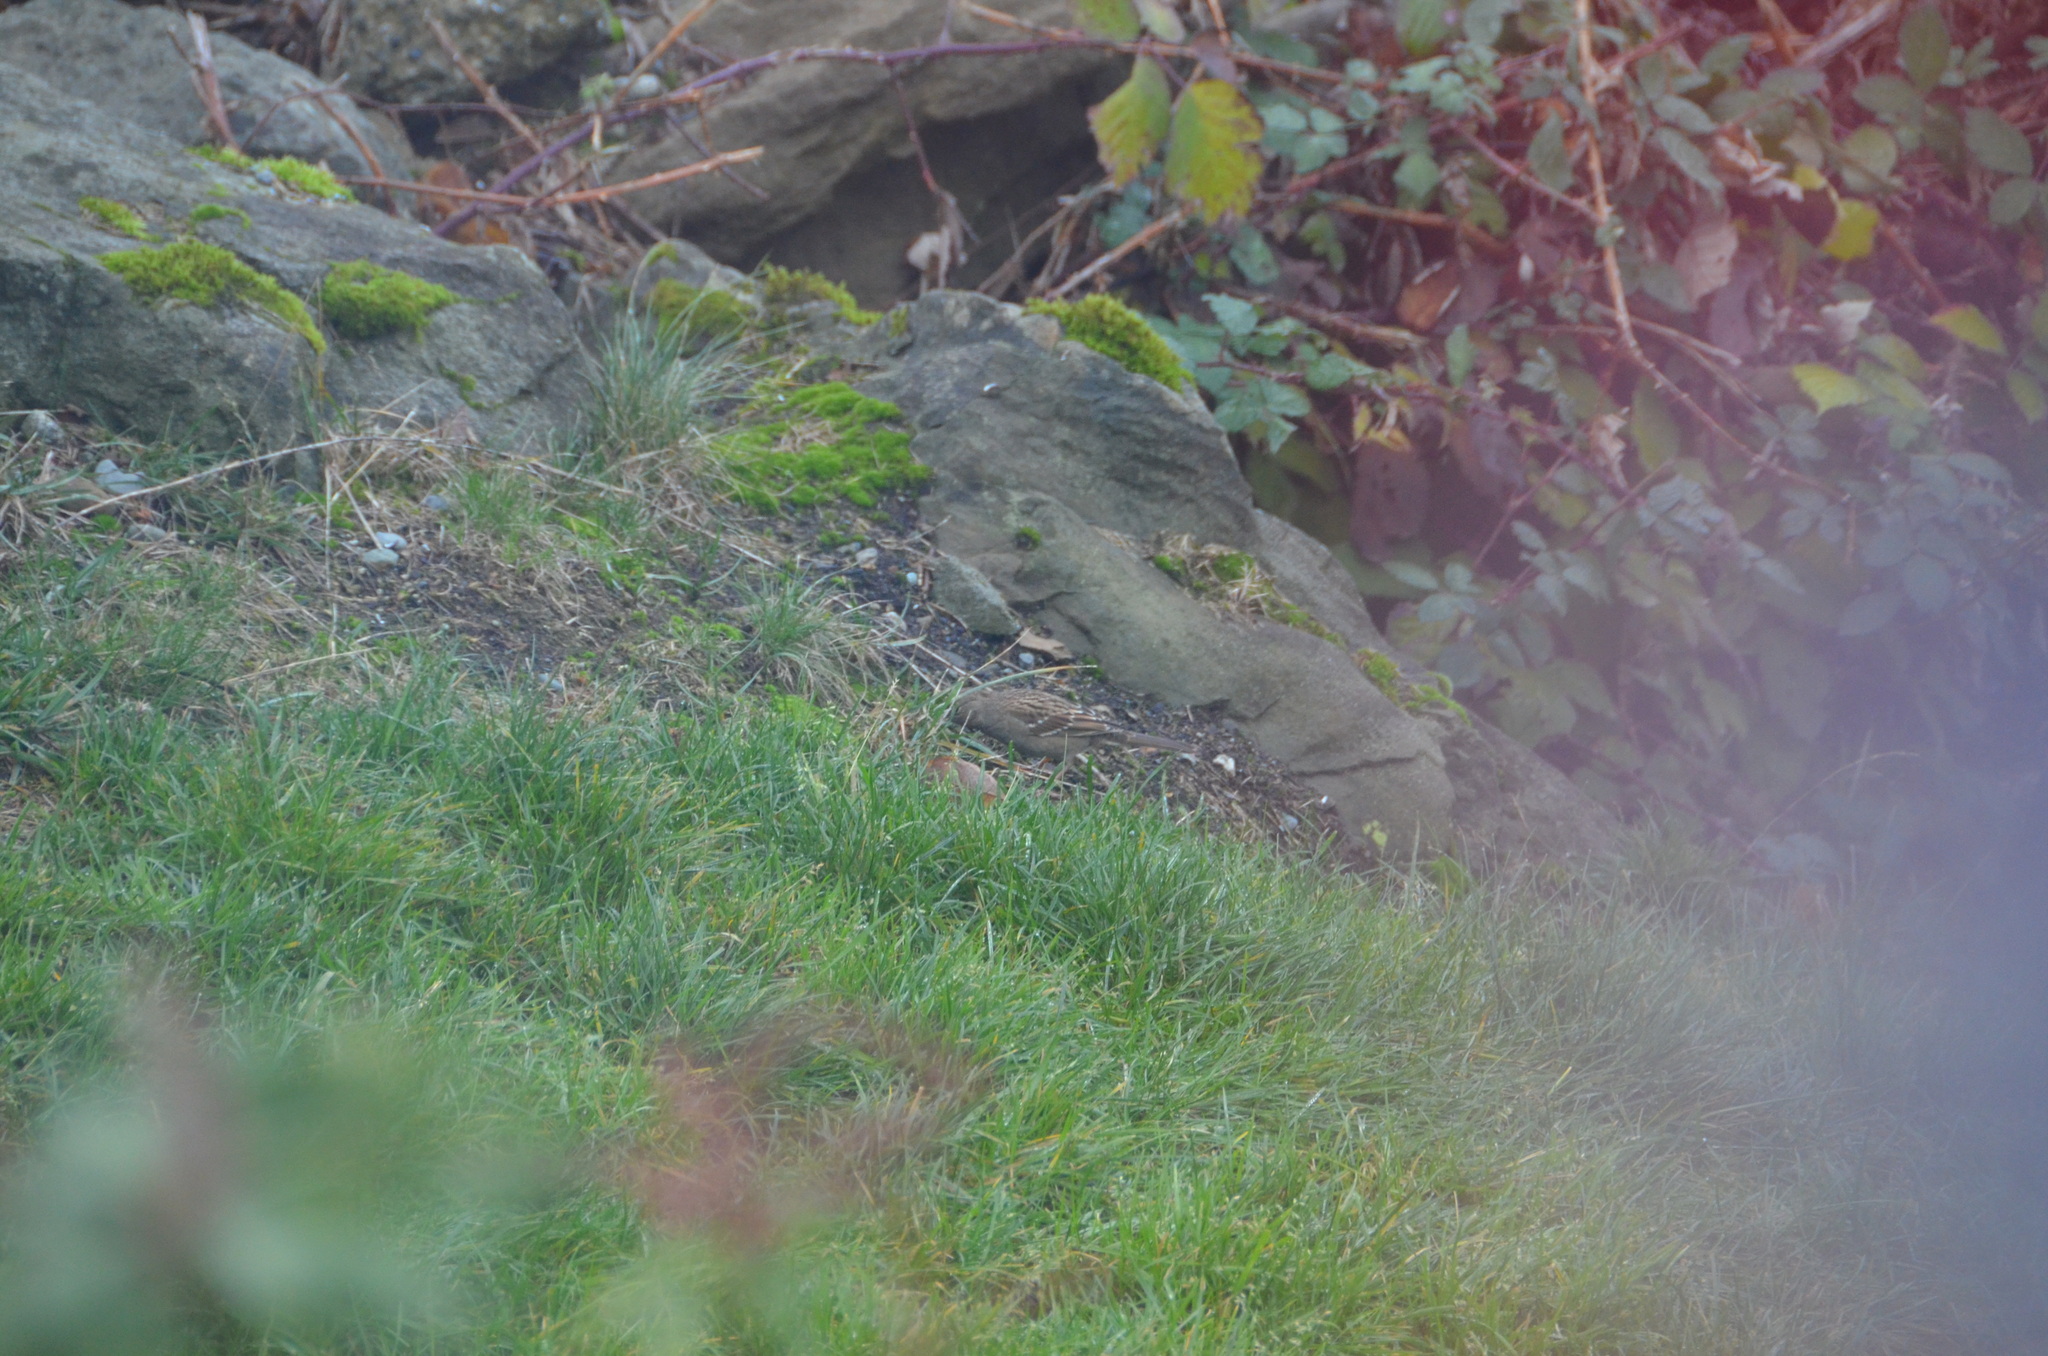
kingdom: Animalia
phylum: Chordata
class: Aves
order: Passeriformes
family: Passerellidae
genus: Zonotrichia
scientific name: Zonotrichia atricapilla
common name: Golden-crowned sparrow
